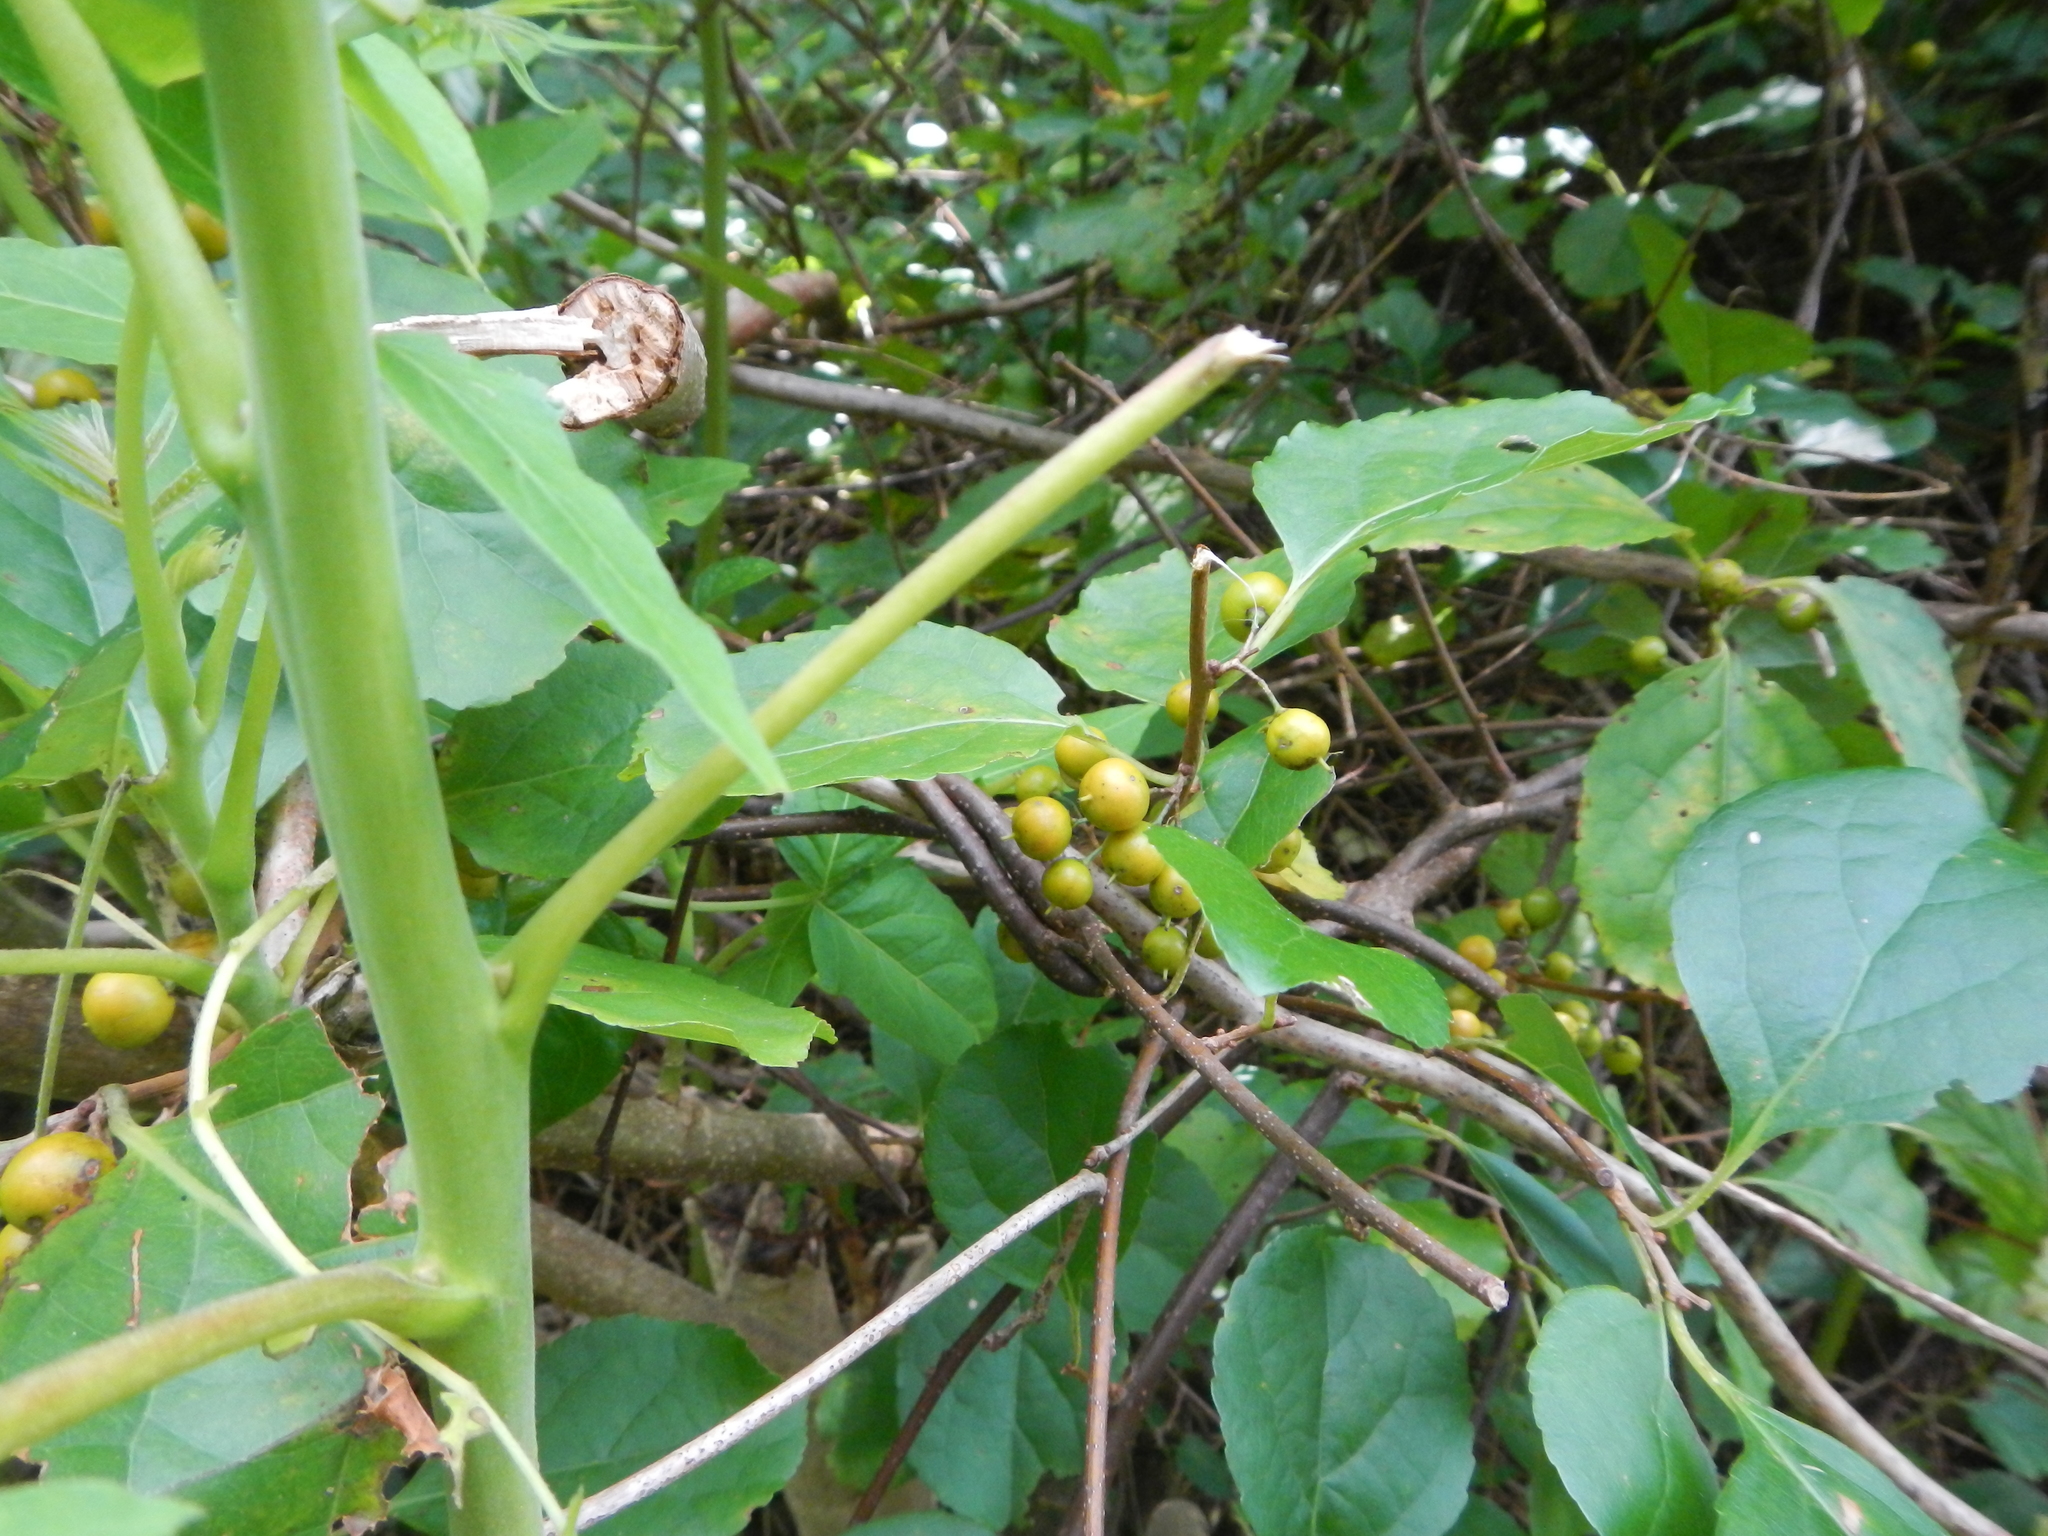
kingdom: Plantae
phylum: Tracheophyta
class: Magnoliopsida
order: Celastrales
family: Celastraceae
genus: Celastrus
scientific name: Celastrus orbiculatus
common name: Oriental bittersweet
